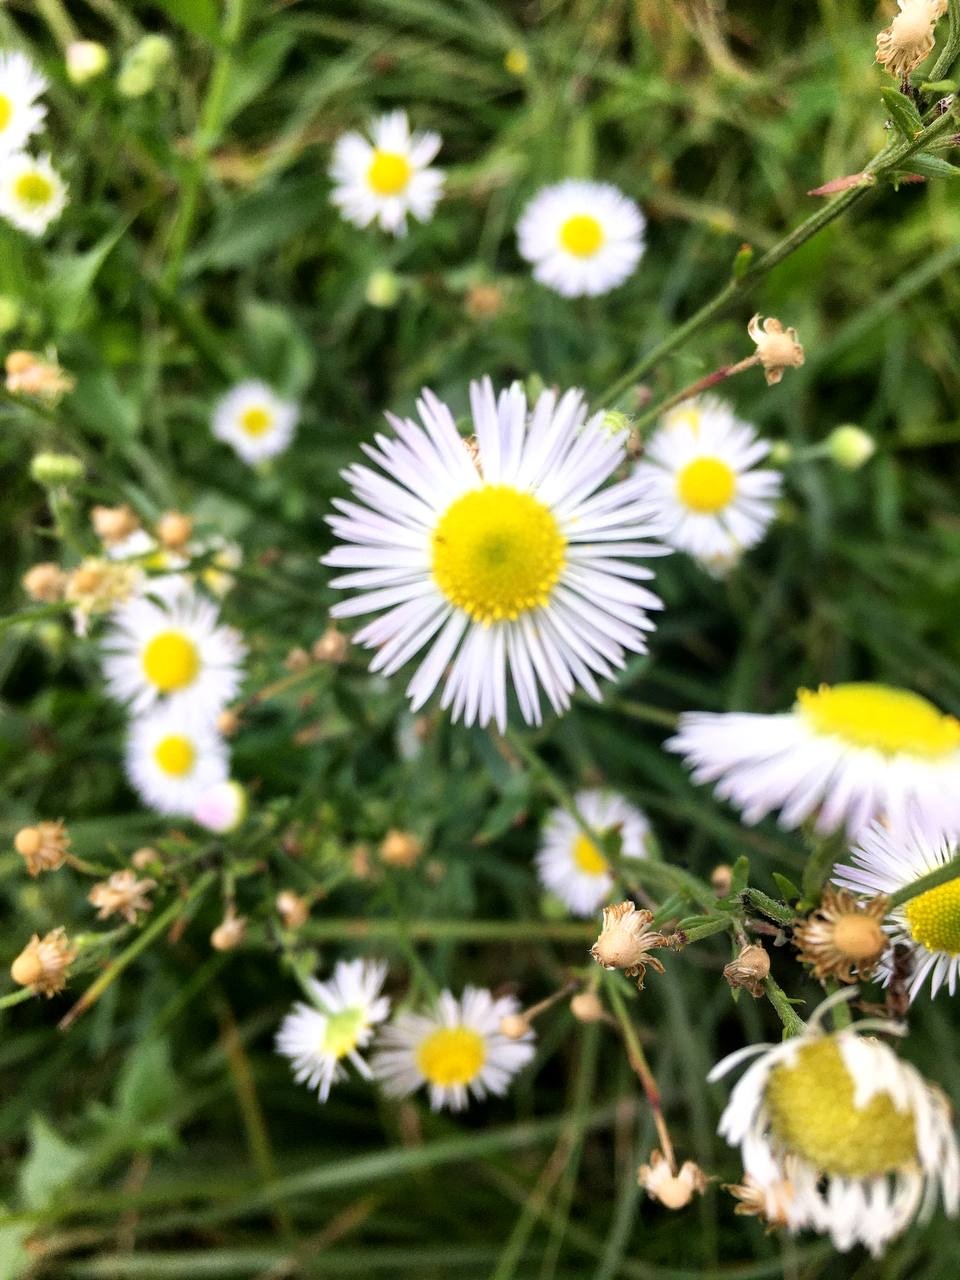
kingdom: Plantae
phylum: Tracheophyta
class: Magnoliopsida
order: Asterales
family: Asteraceae
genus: Erigeron
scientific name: Erigeron annuus
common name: Tall fleabane
